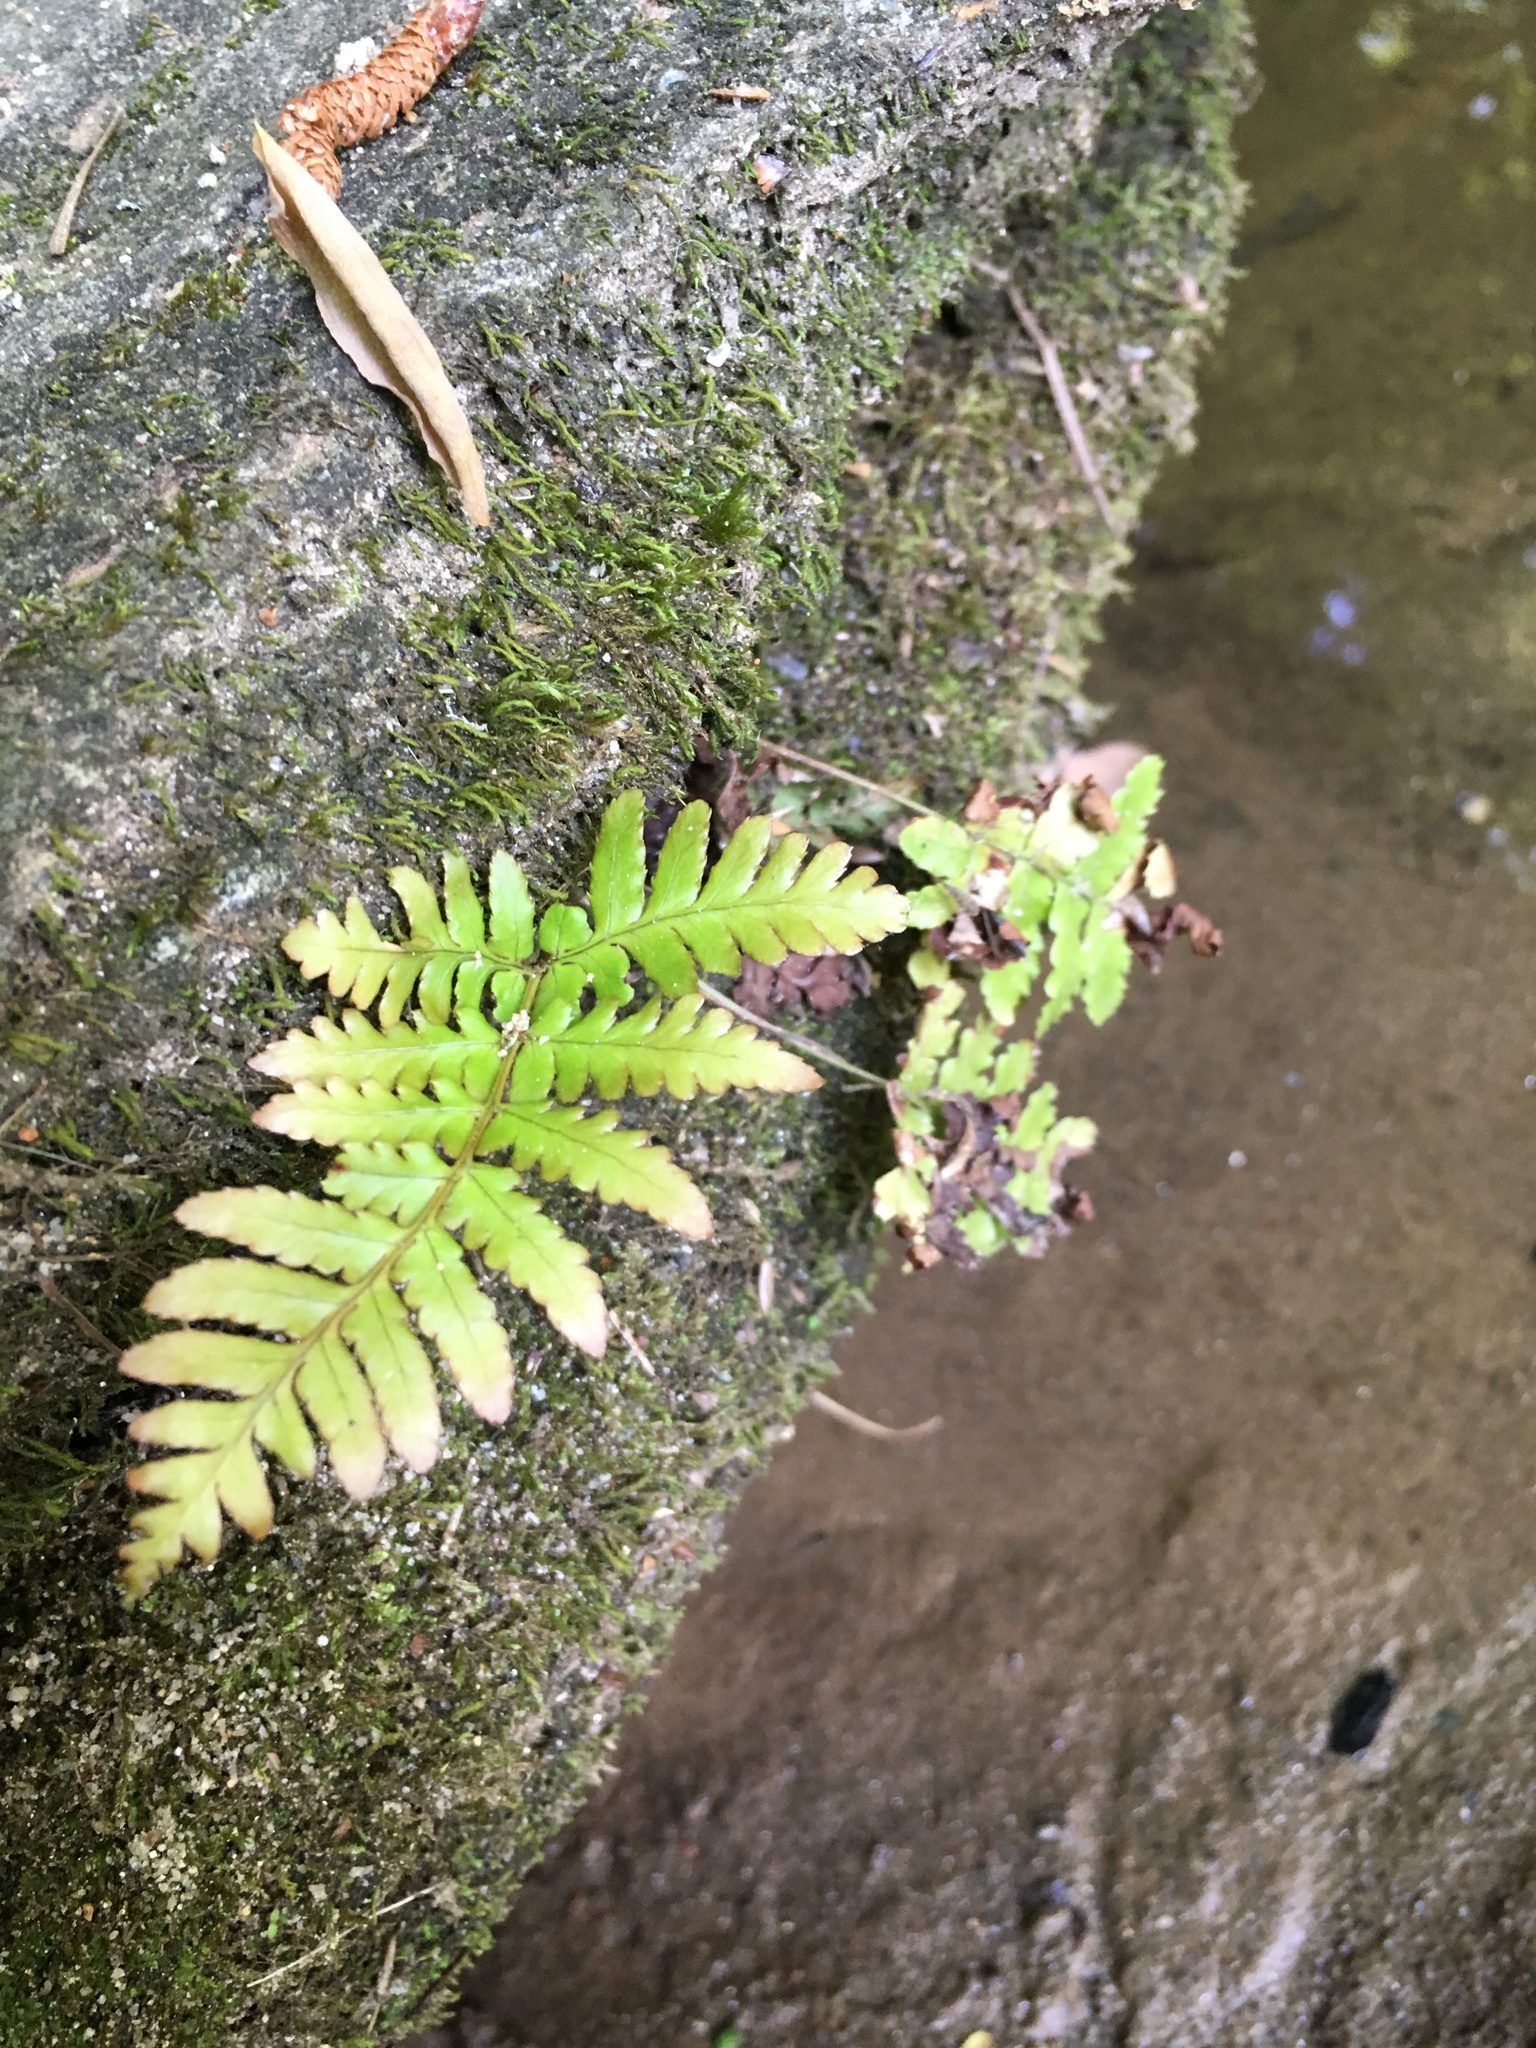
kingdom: Plantae
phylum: Tracheophyta
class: Polypodiopsida
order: Polypodiales
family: Dryopteridaceae
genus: Dryopteris
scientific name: Dryopteris erythrosora
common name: Autumn fern
